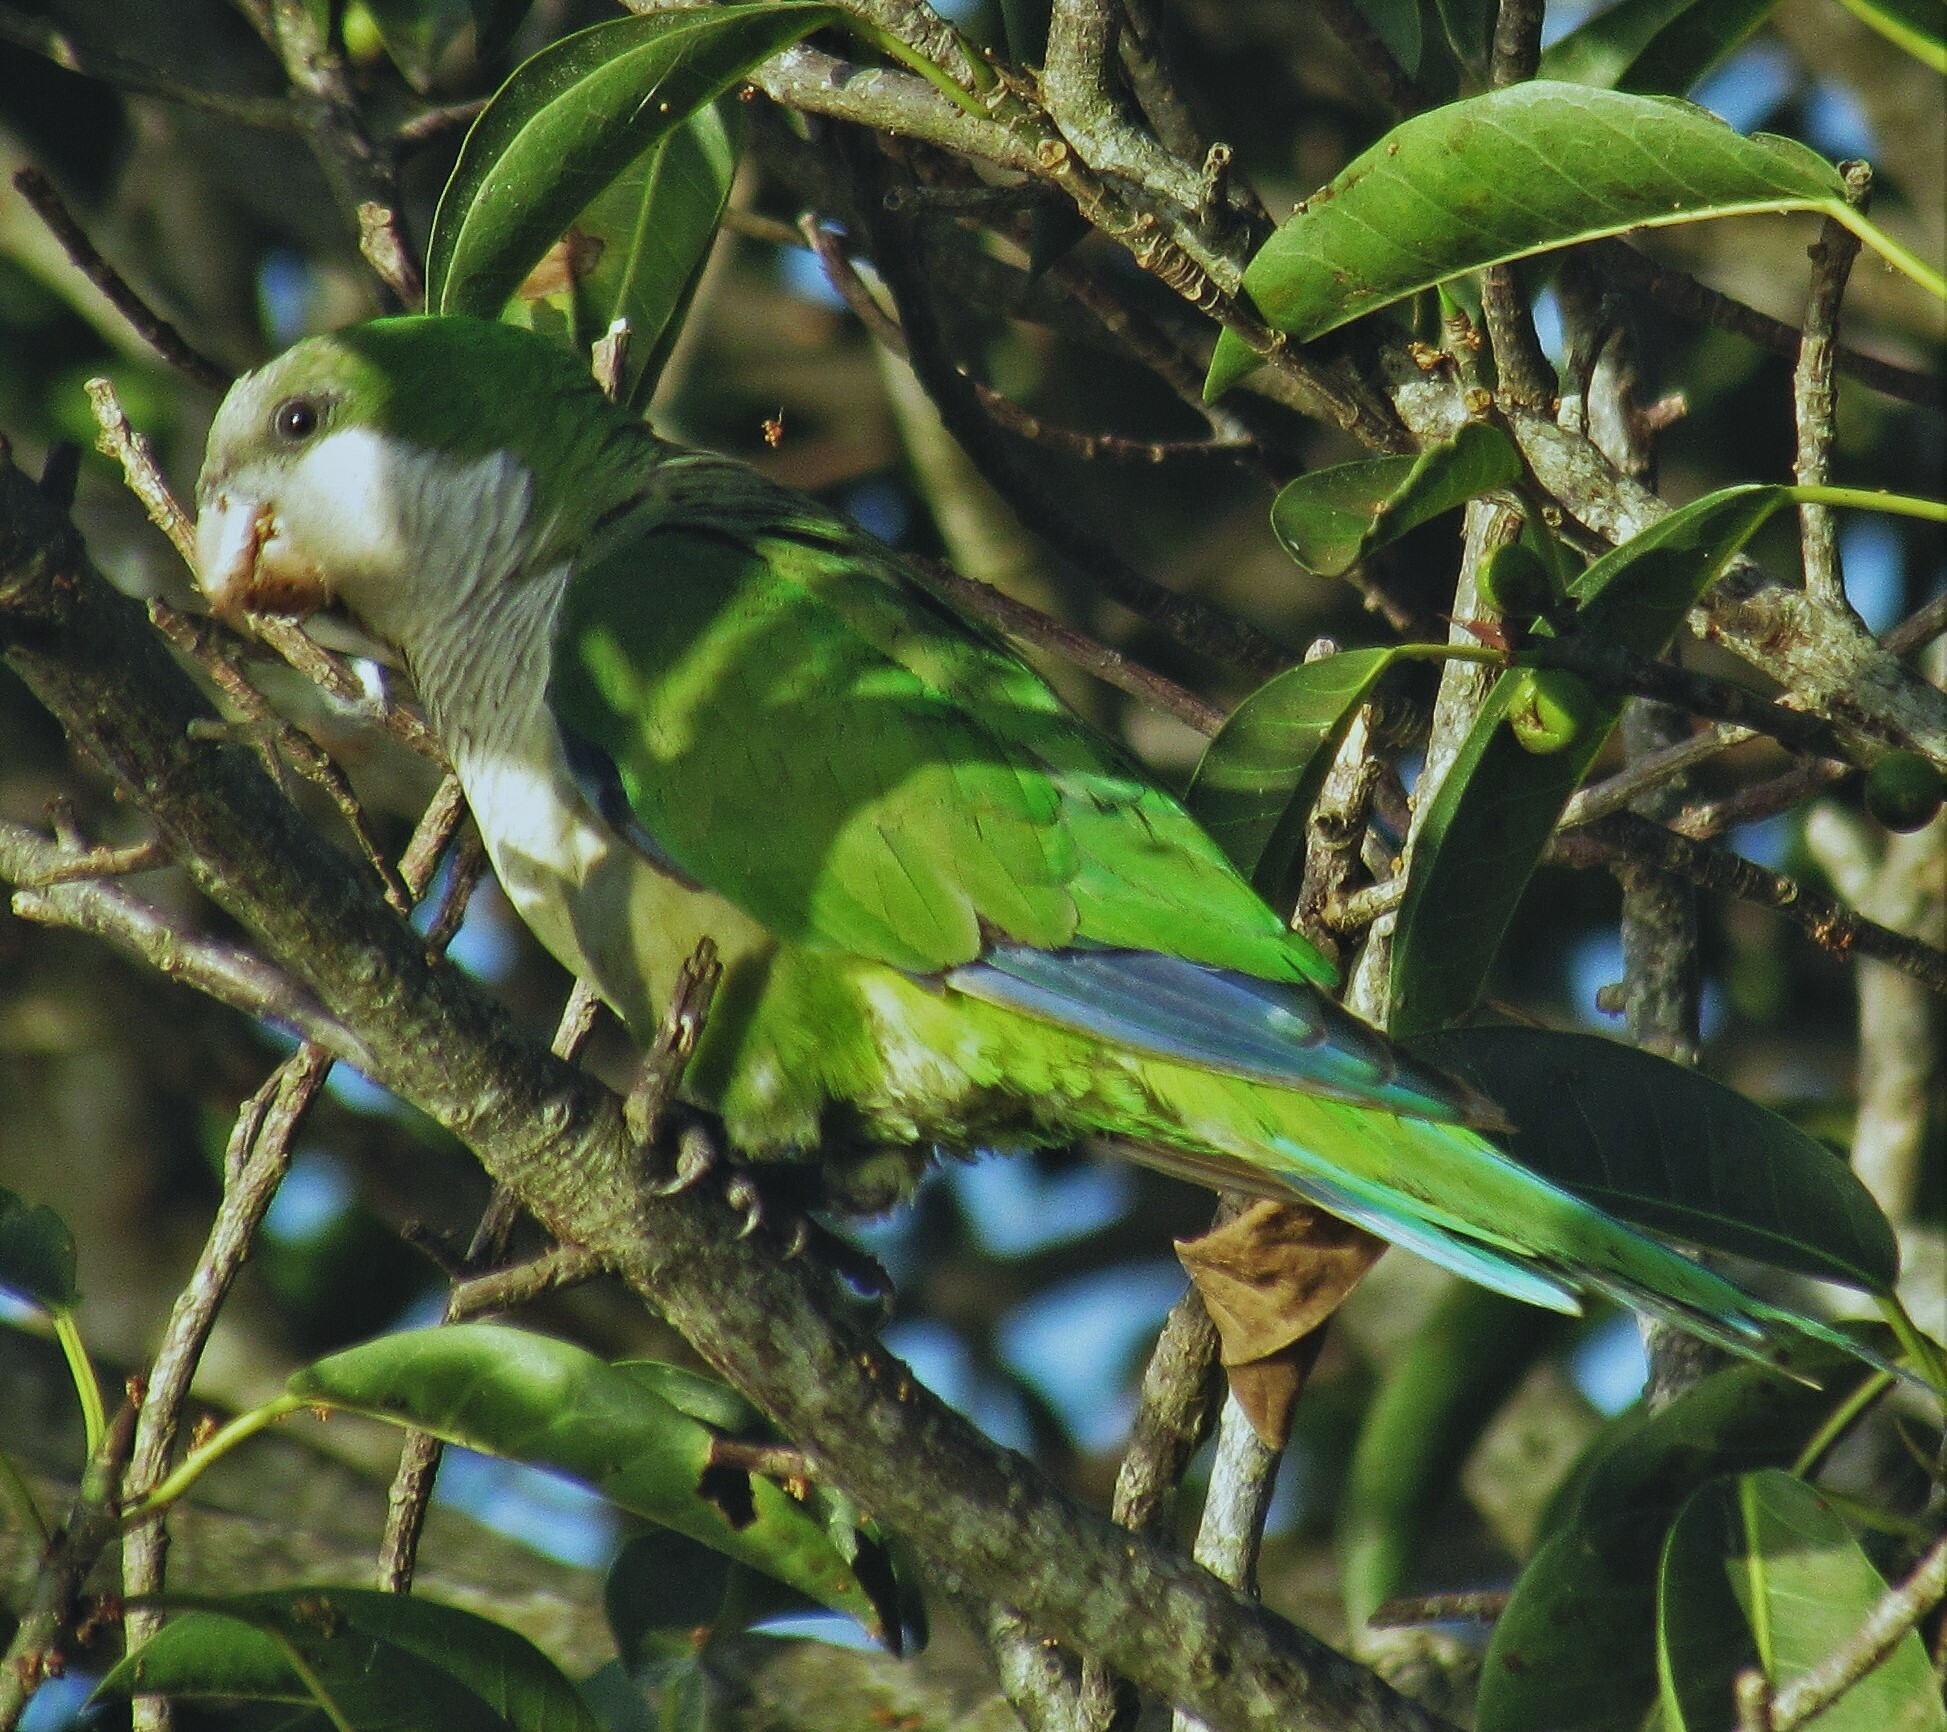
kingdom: Animalia
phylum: Chordata
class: Aves
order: Psittaciformes
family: Psittacidae
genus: Myiopsitta
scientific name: Myiopsitta monachus
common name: Monk parakeet
